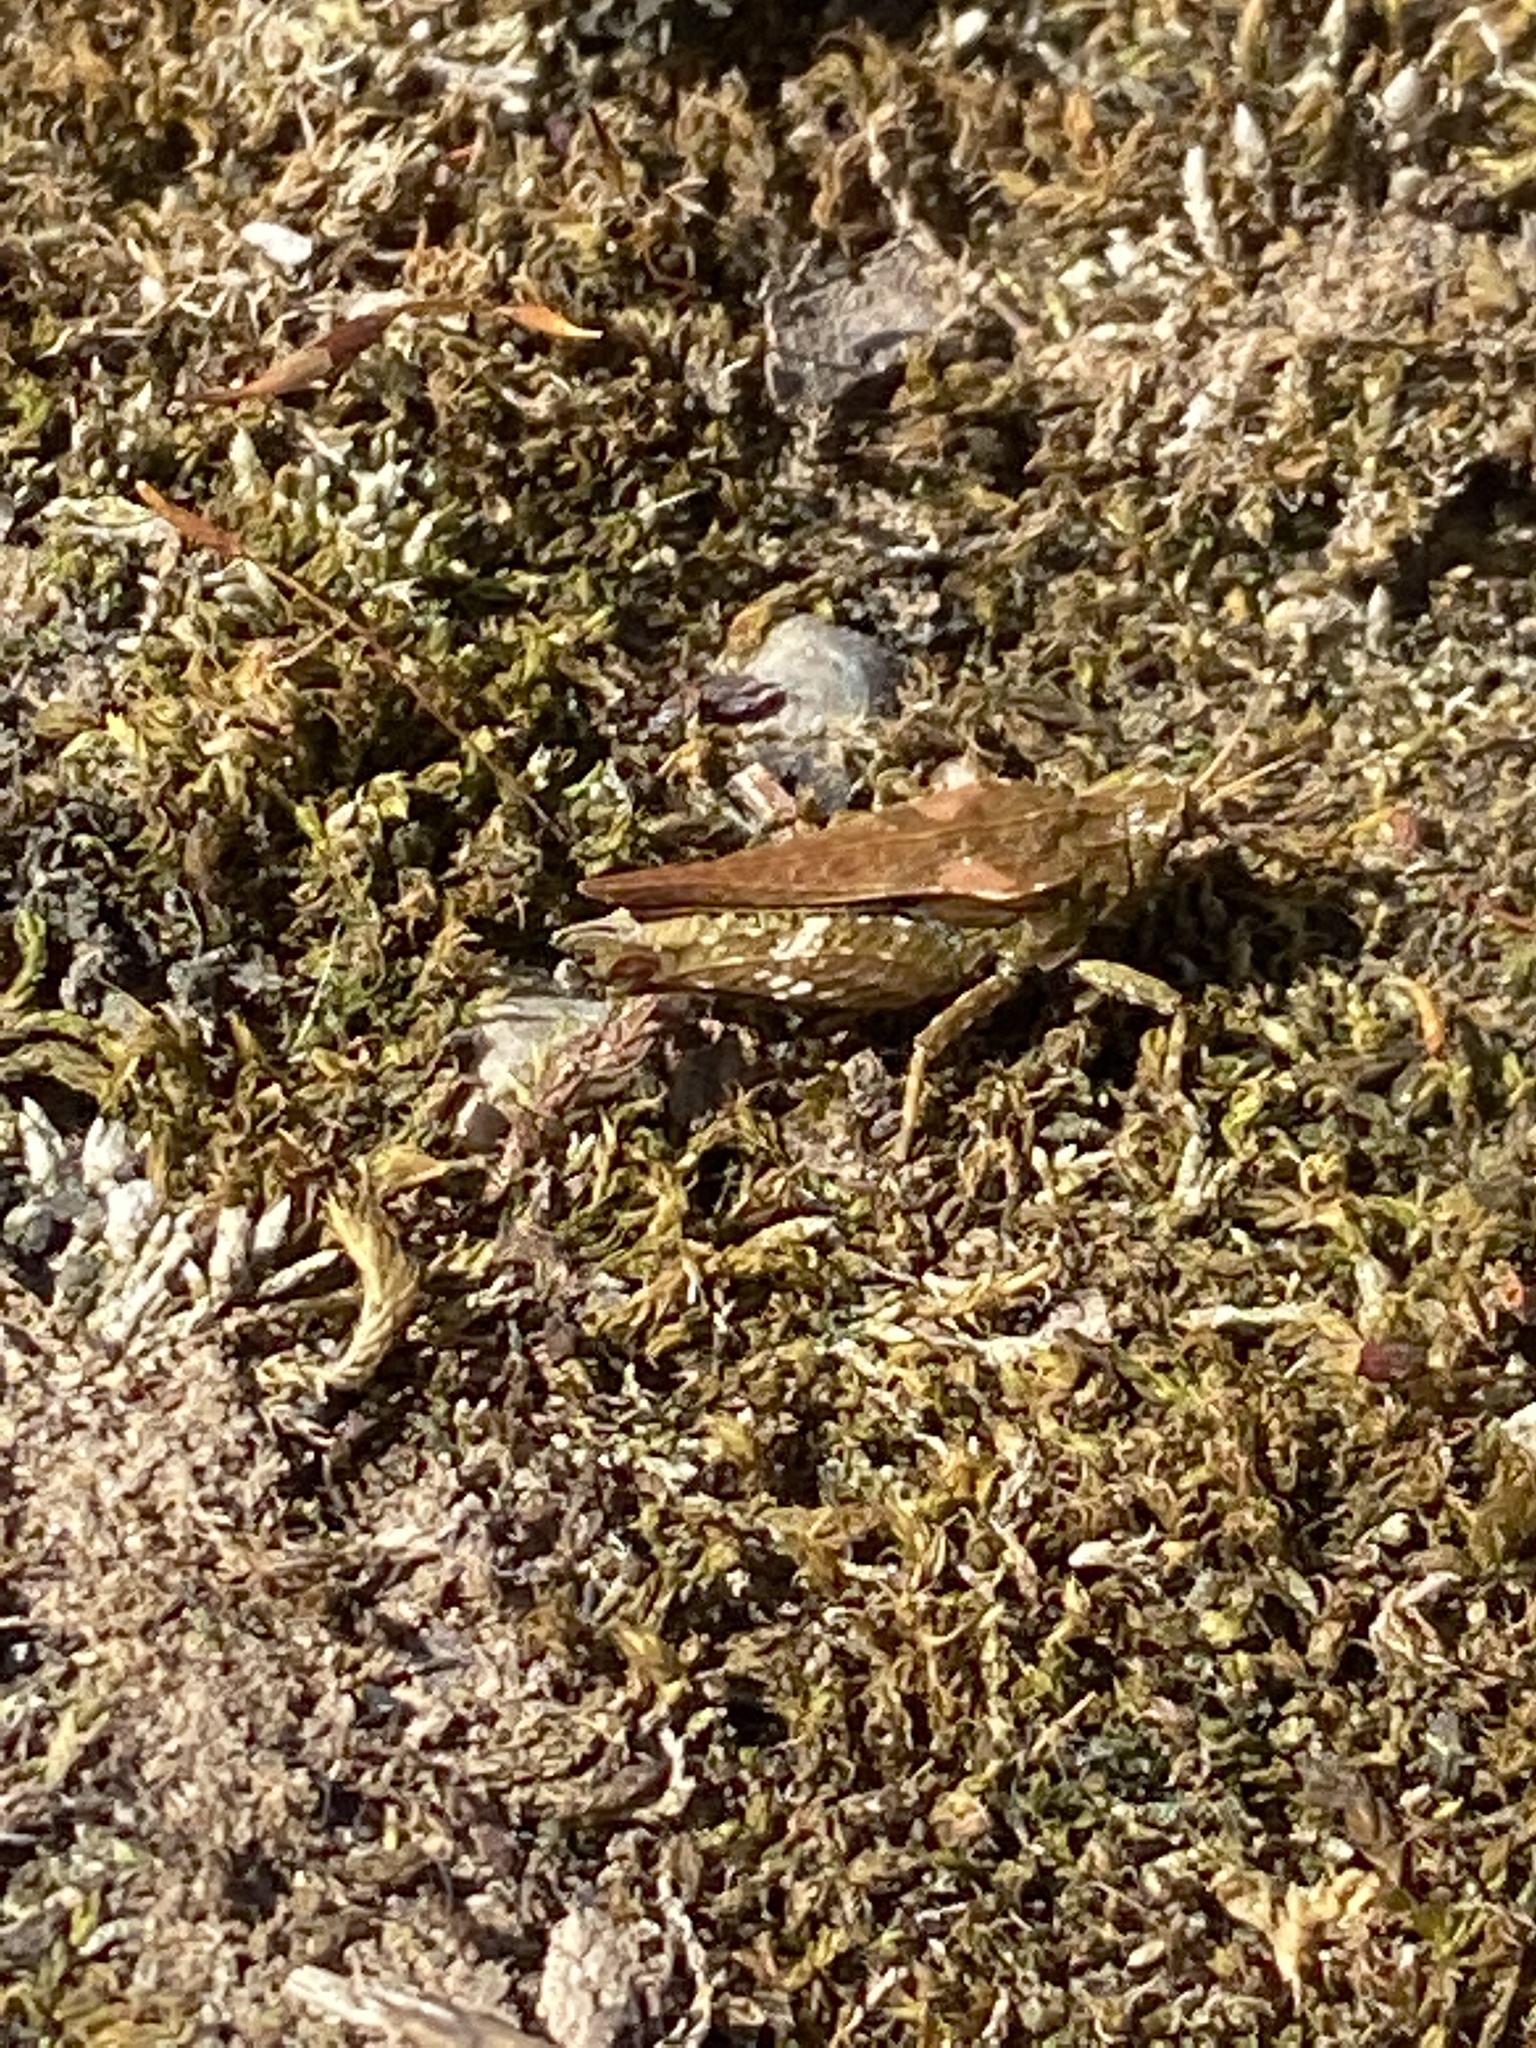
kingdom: Animalia
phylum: Arthropoda
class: Insecta
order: Orthoptera
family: Tetrigidae
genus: Tetrix
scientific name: Tetrix subulata
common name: Slender ground-hopper
